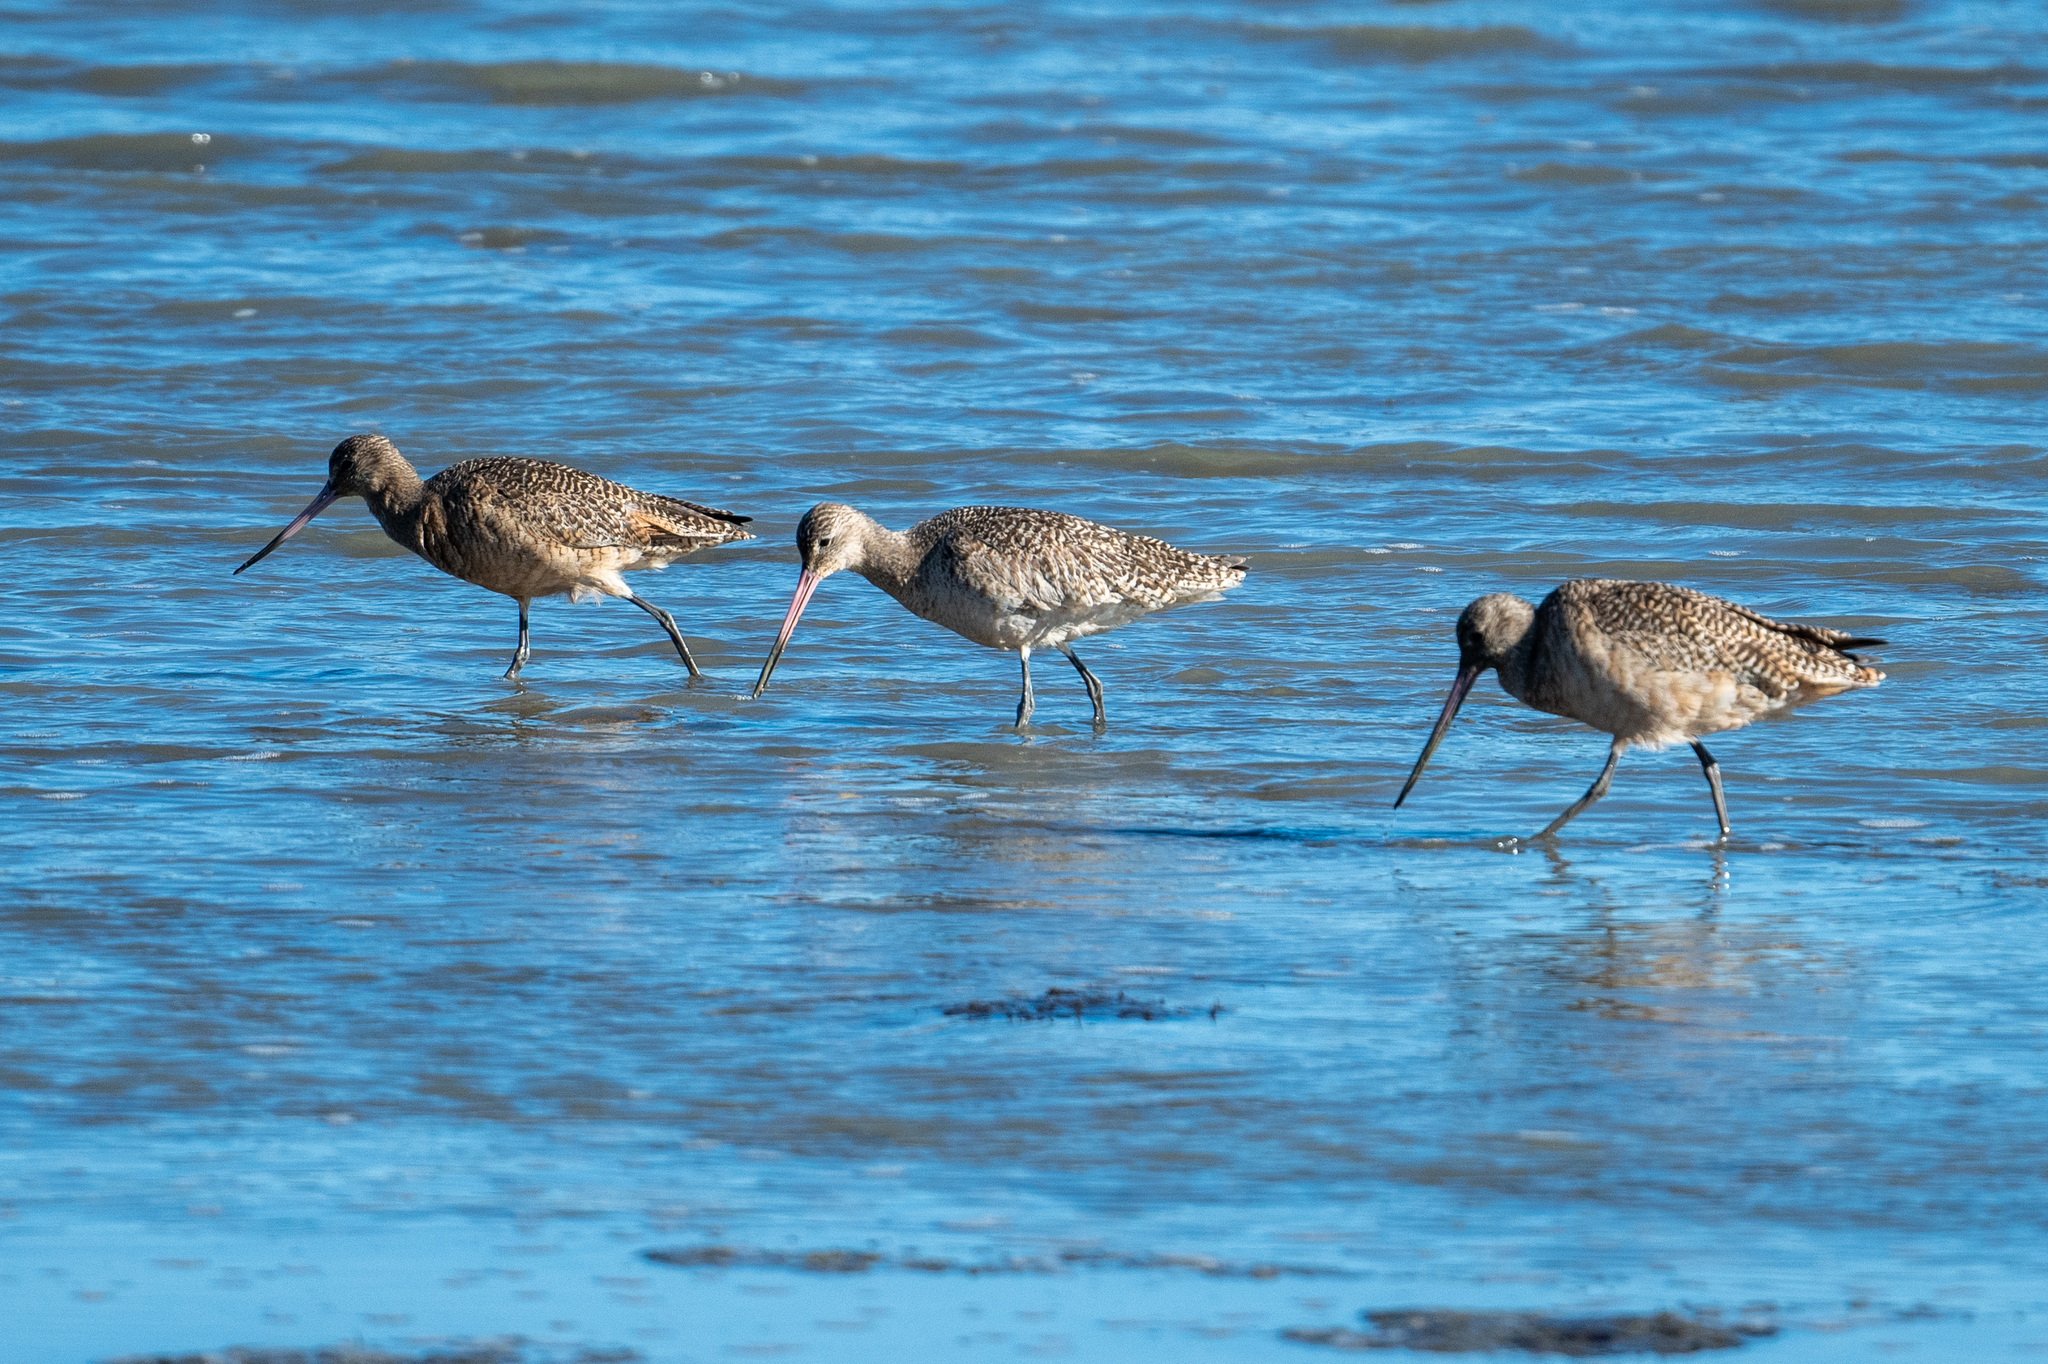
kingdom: Animalia
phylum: Chordata
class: Aves
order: Charadriiformes
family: Scolopacidae
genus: Limosa
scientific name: Limosa fedoa
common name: Marbled godwit
